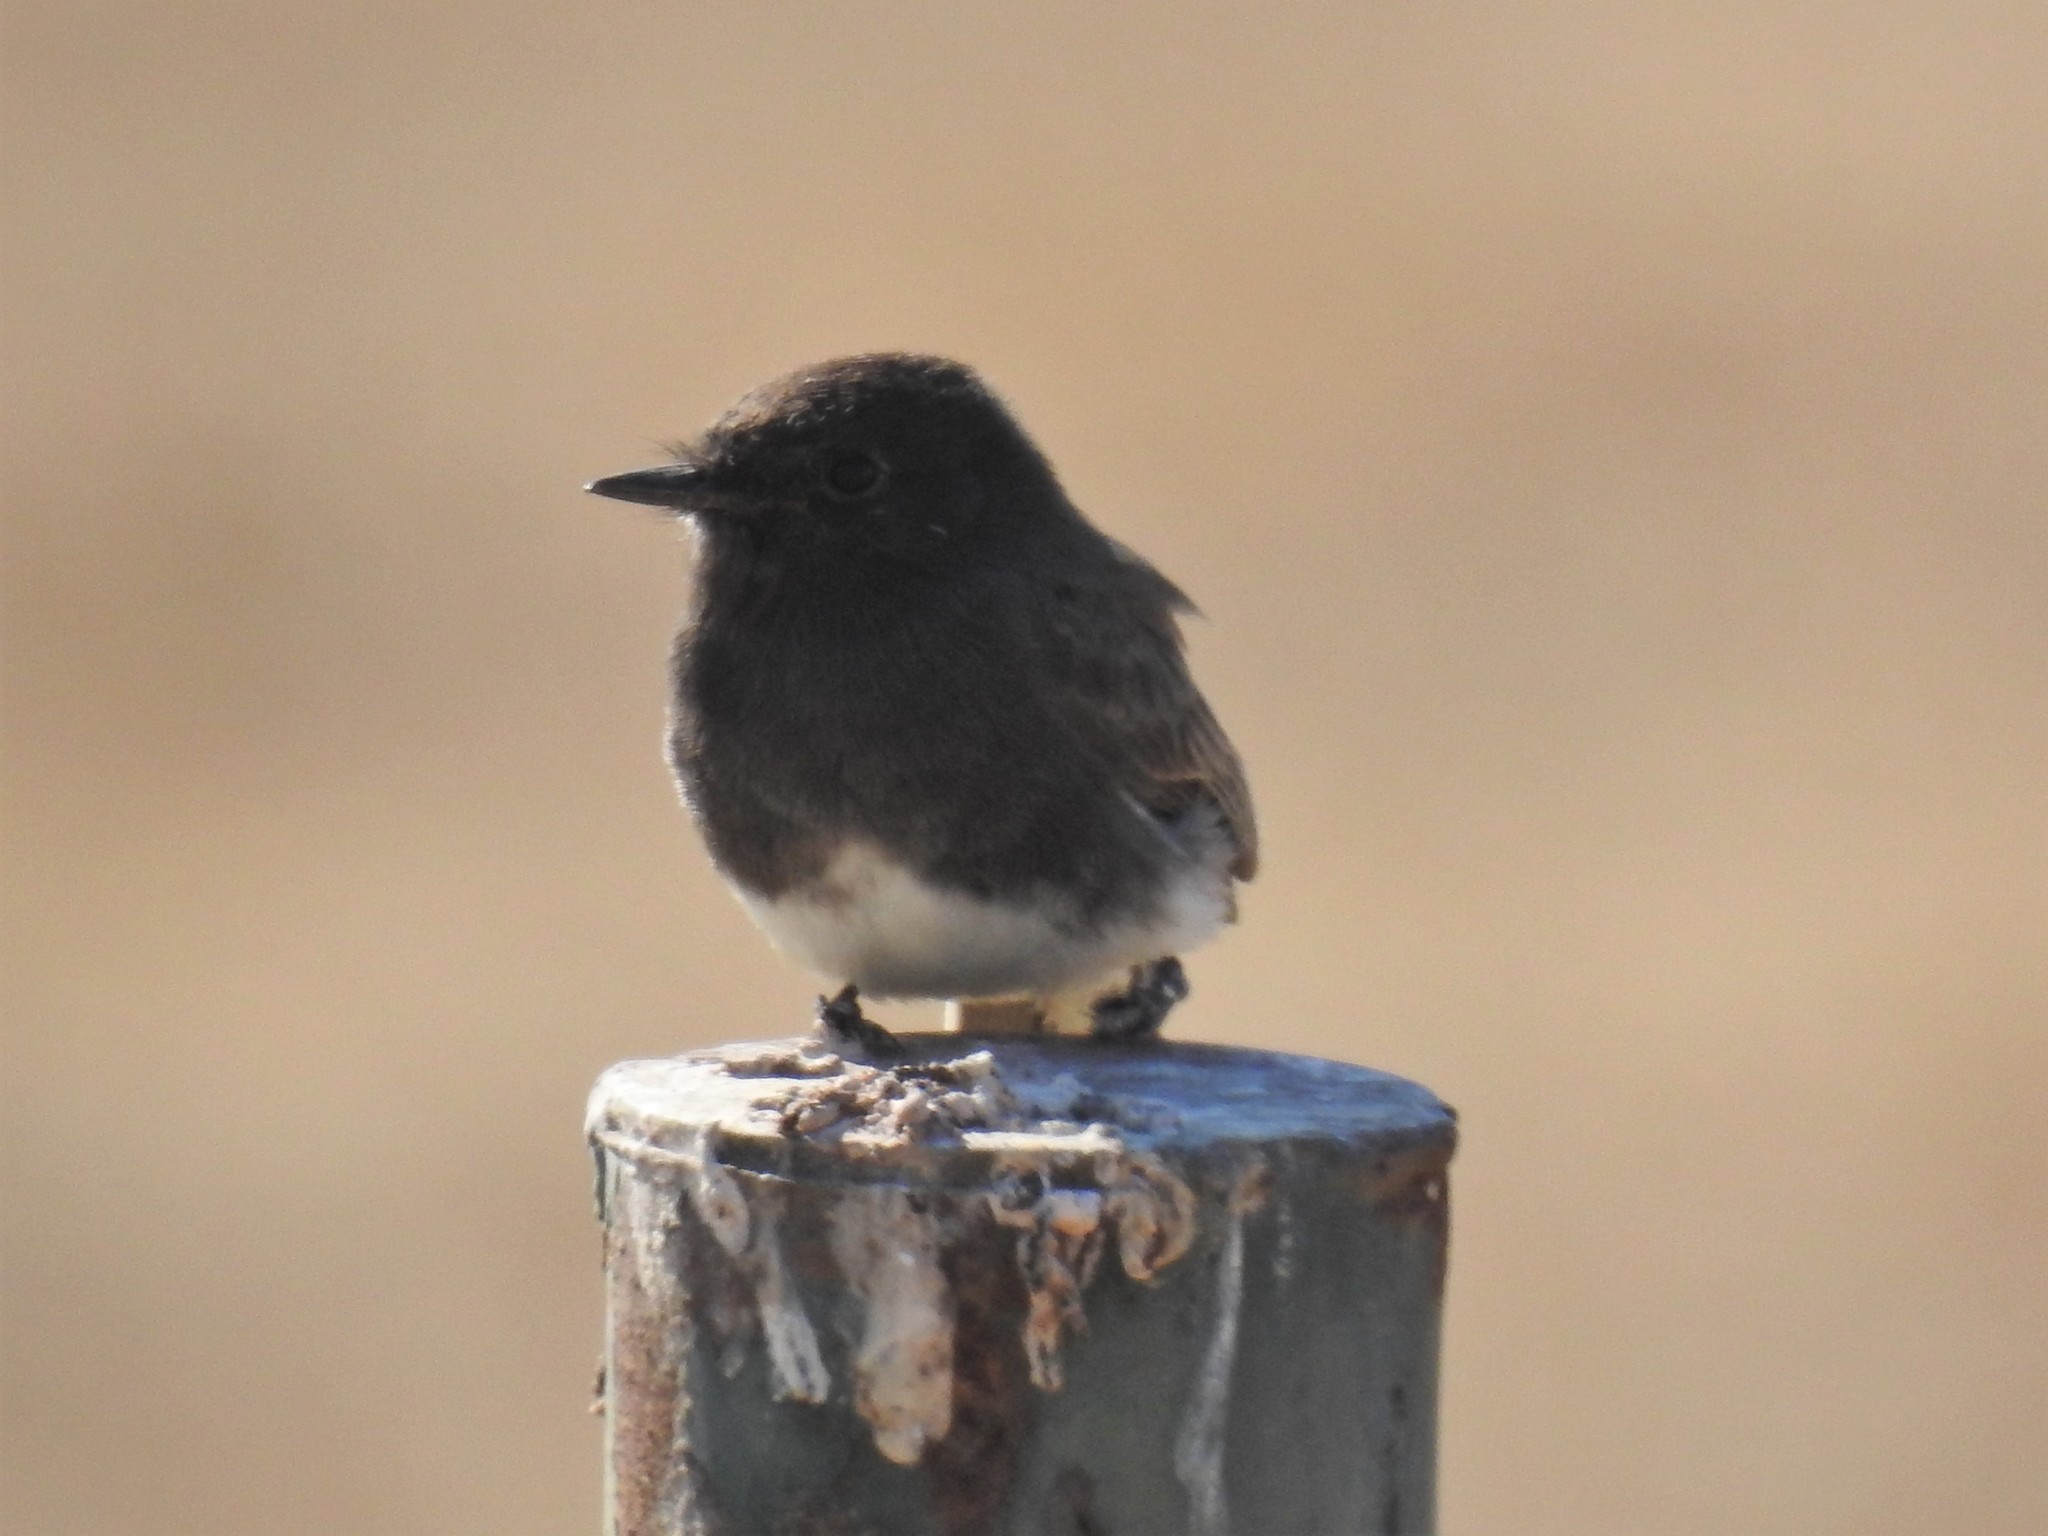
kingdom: Animalia
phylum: Chordata
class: Aves
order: Passeriformes
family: Tyrannidae
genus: Sayornis
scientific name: Sayornis nigricans
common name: Black phoebe
